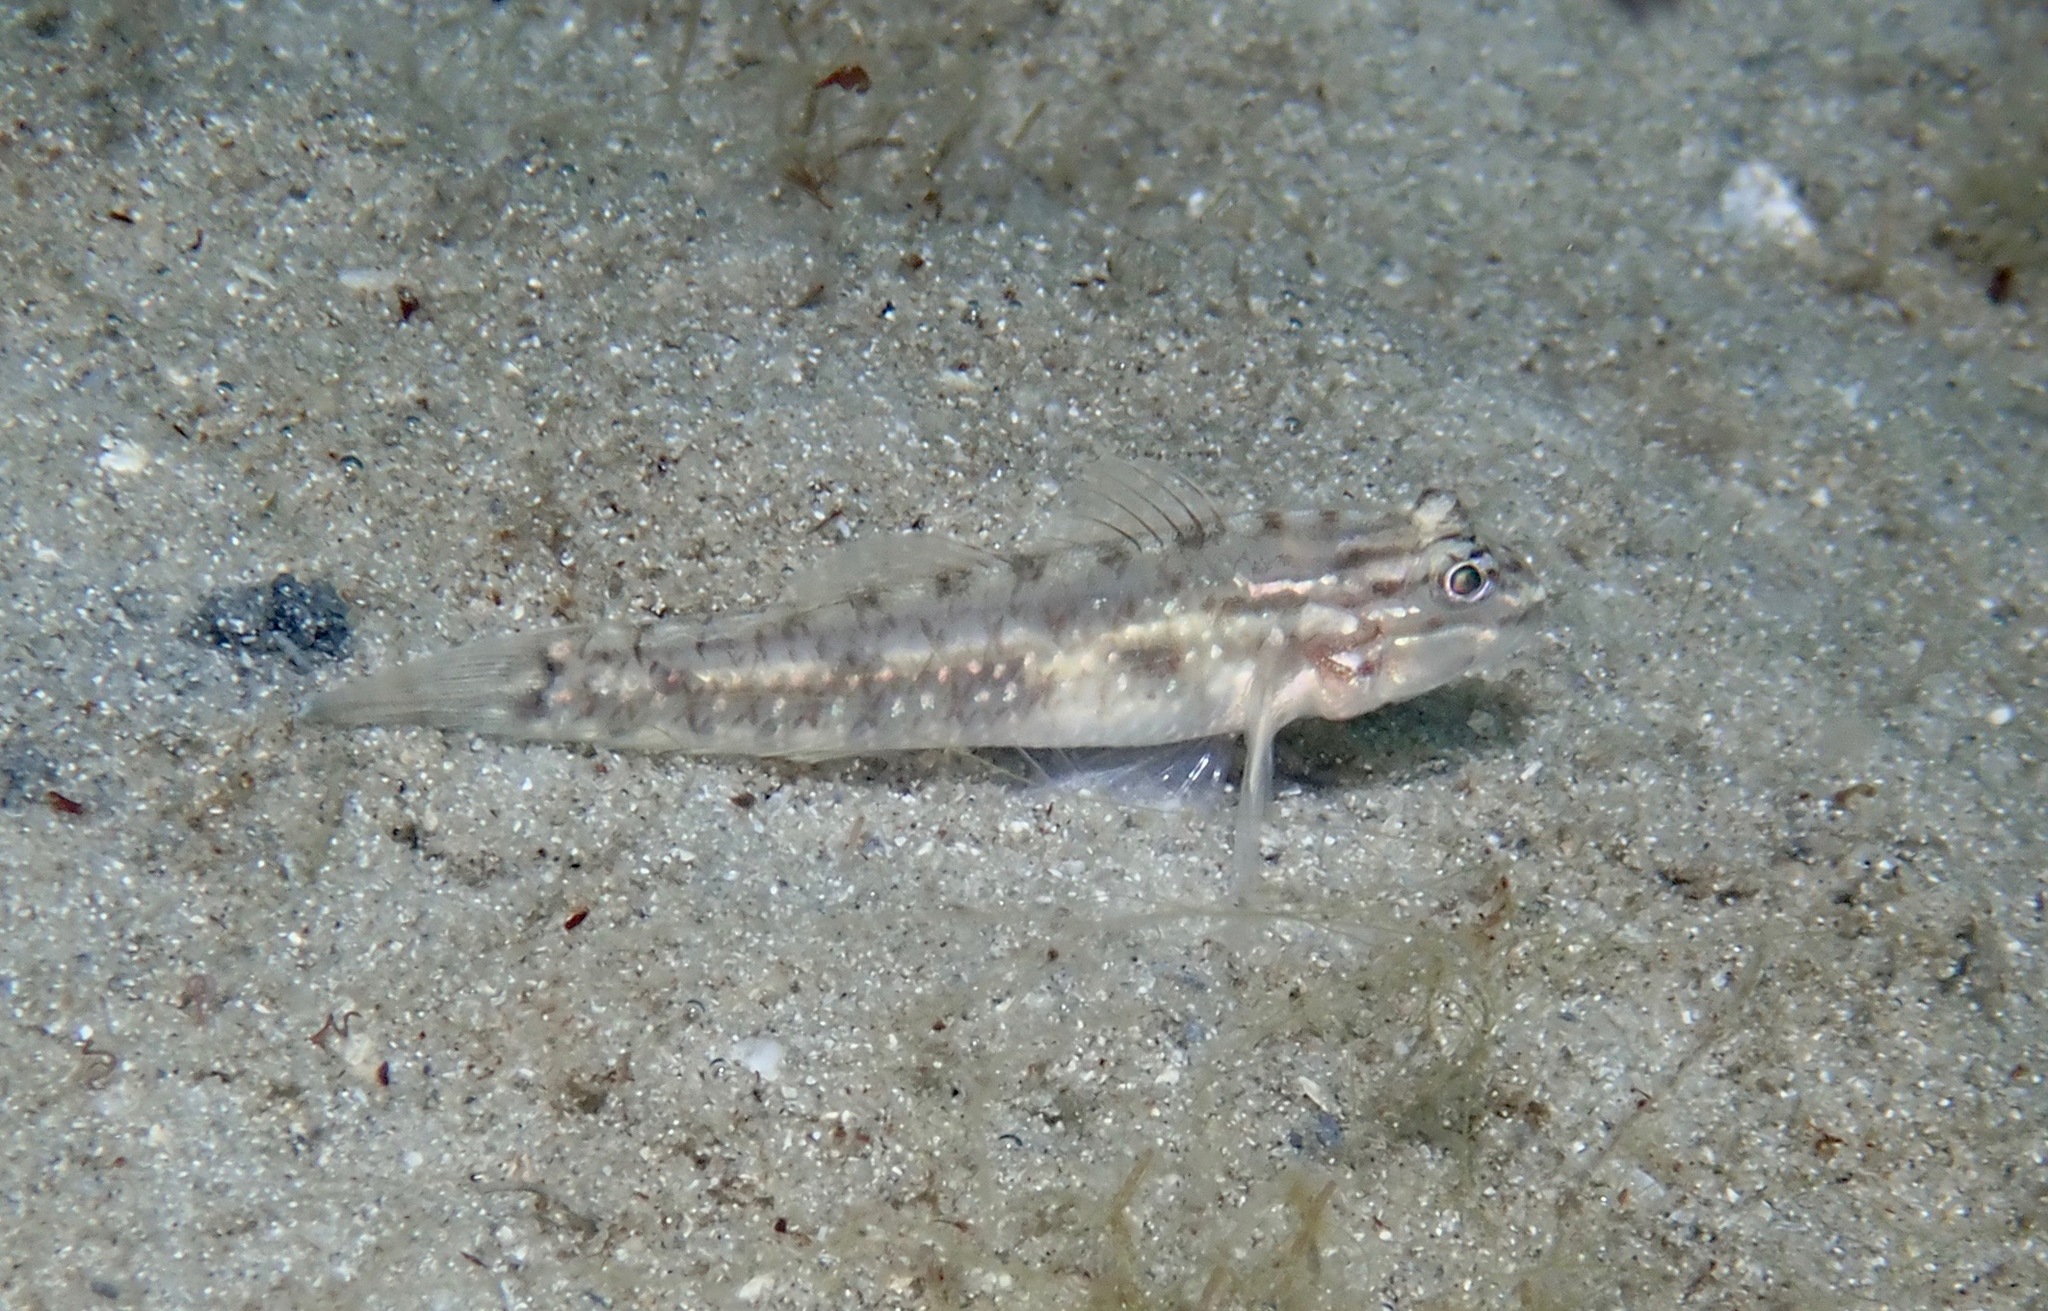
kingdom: Animalia
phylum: Chordata
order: Perciformes
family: Gobiidae
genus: Coryphopterus
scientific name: Coryphopterus glaucofraenum
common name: Bridled goby
